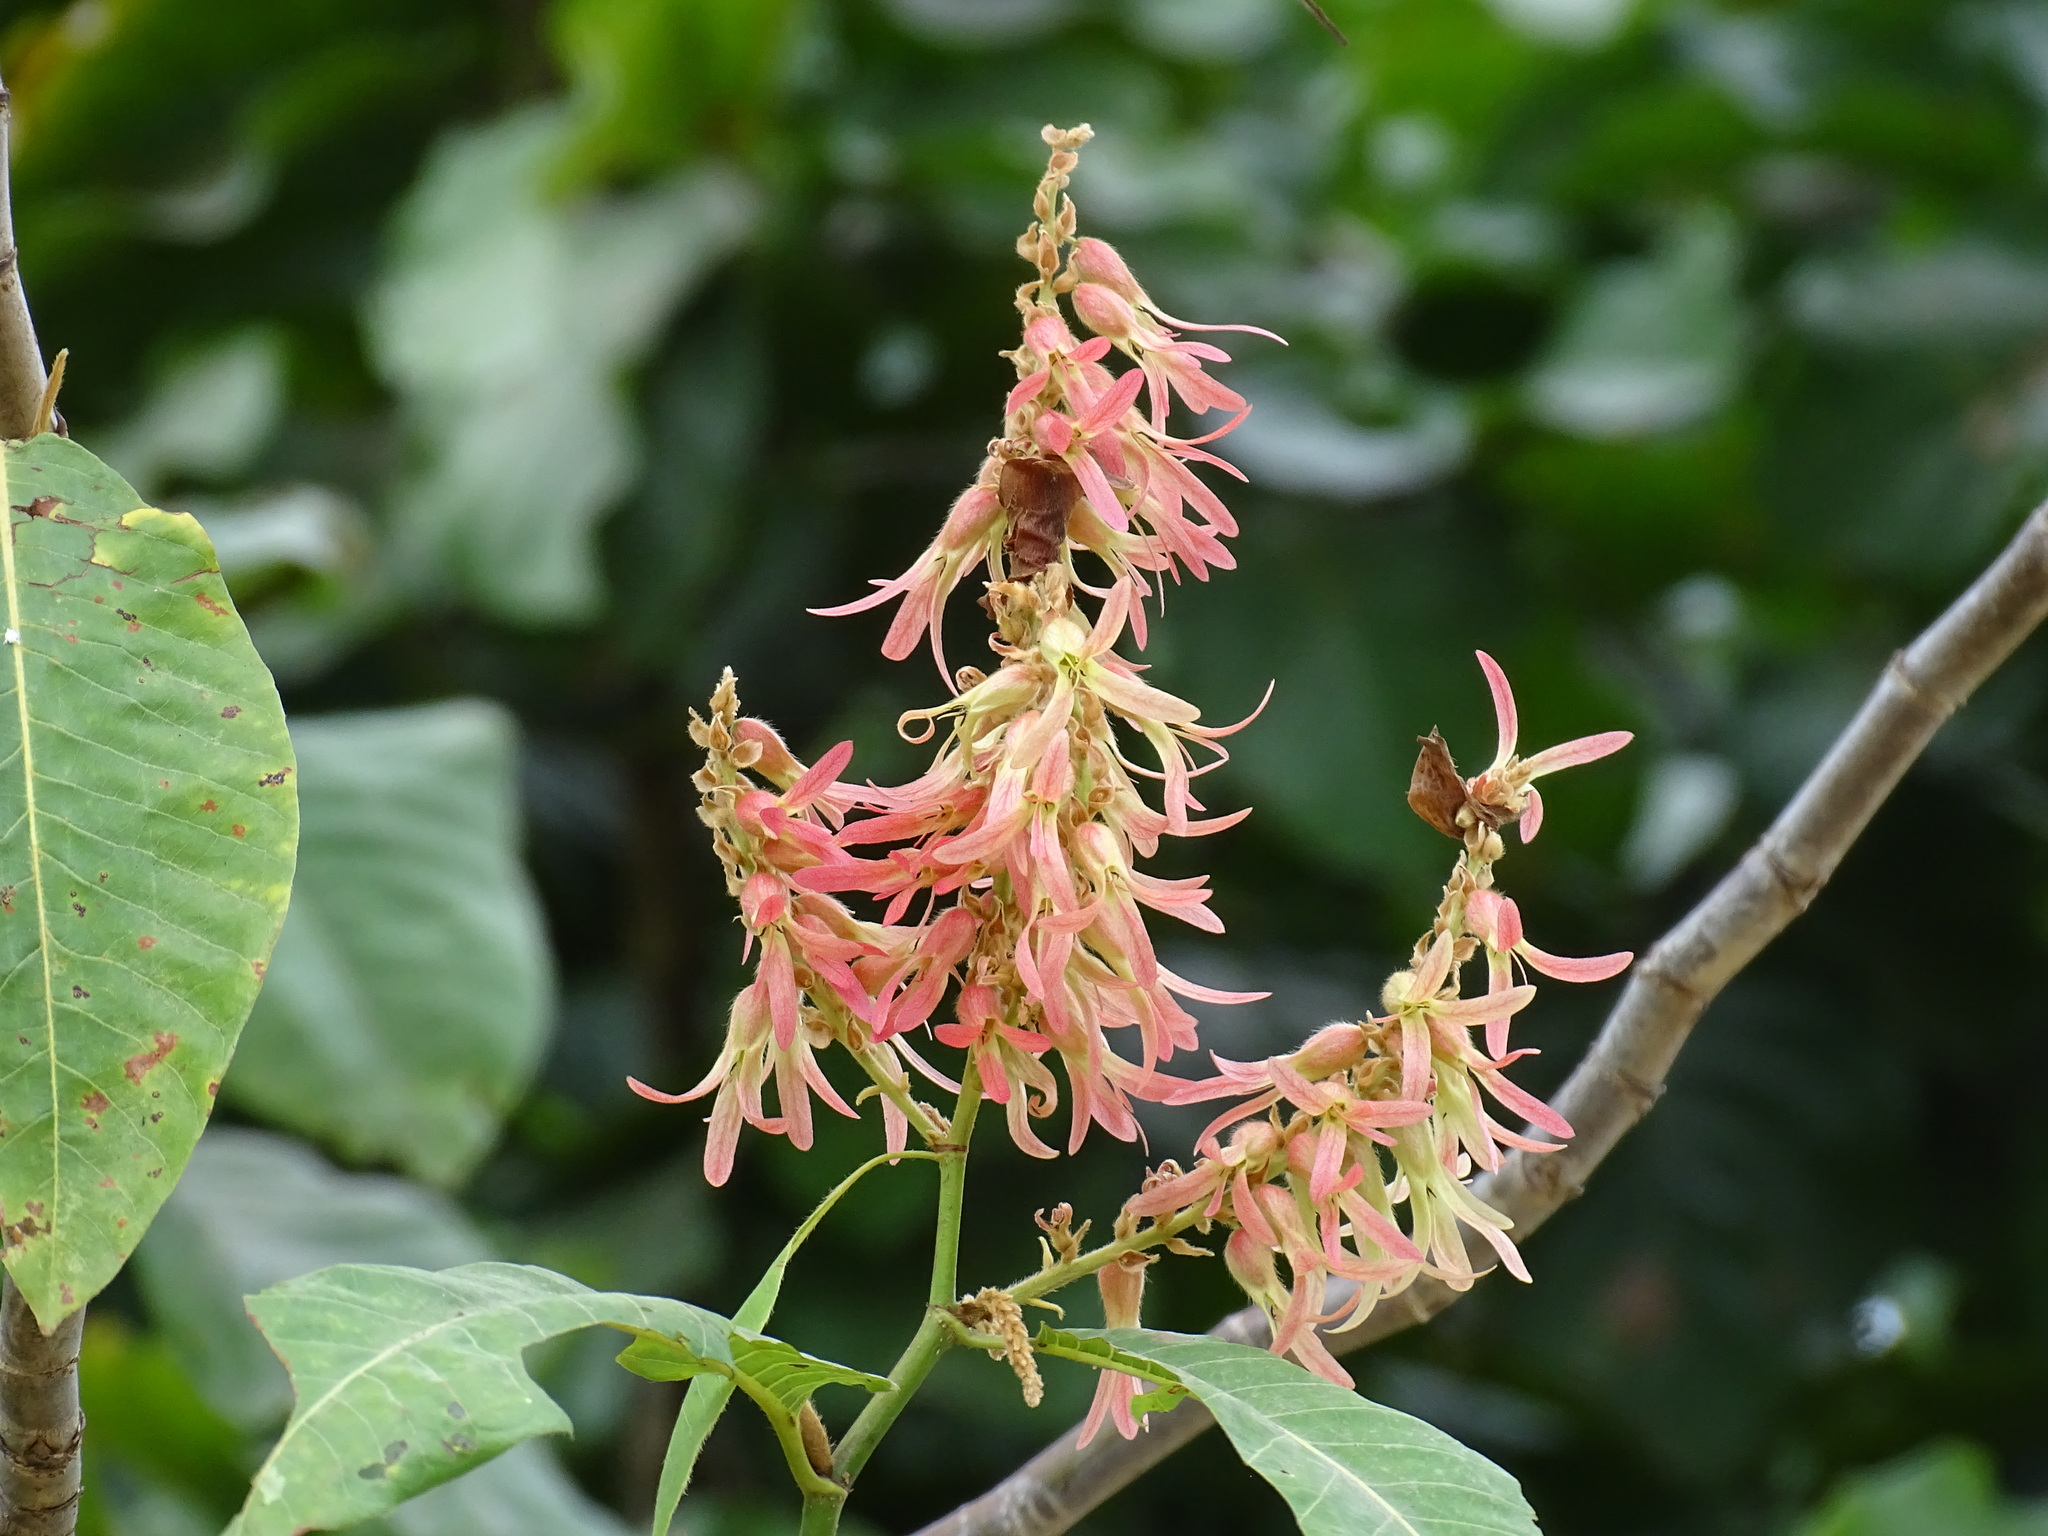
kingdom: Plantae
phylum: Tracheophyta
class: Magnoliopsida
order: Caryophyllales
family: Polygonaceae
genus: Triplaris
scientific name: Triplaris melaenodendron
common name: Long john
